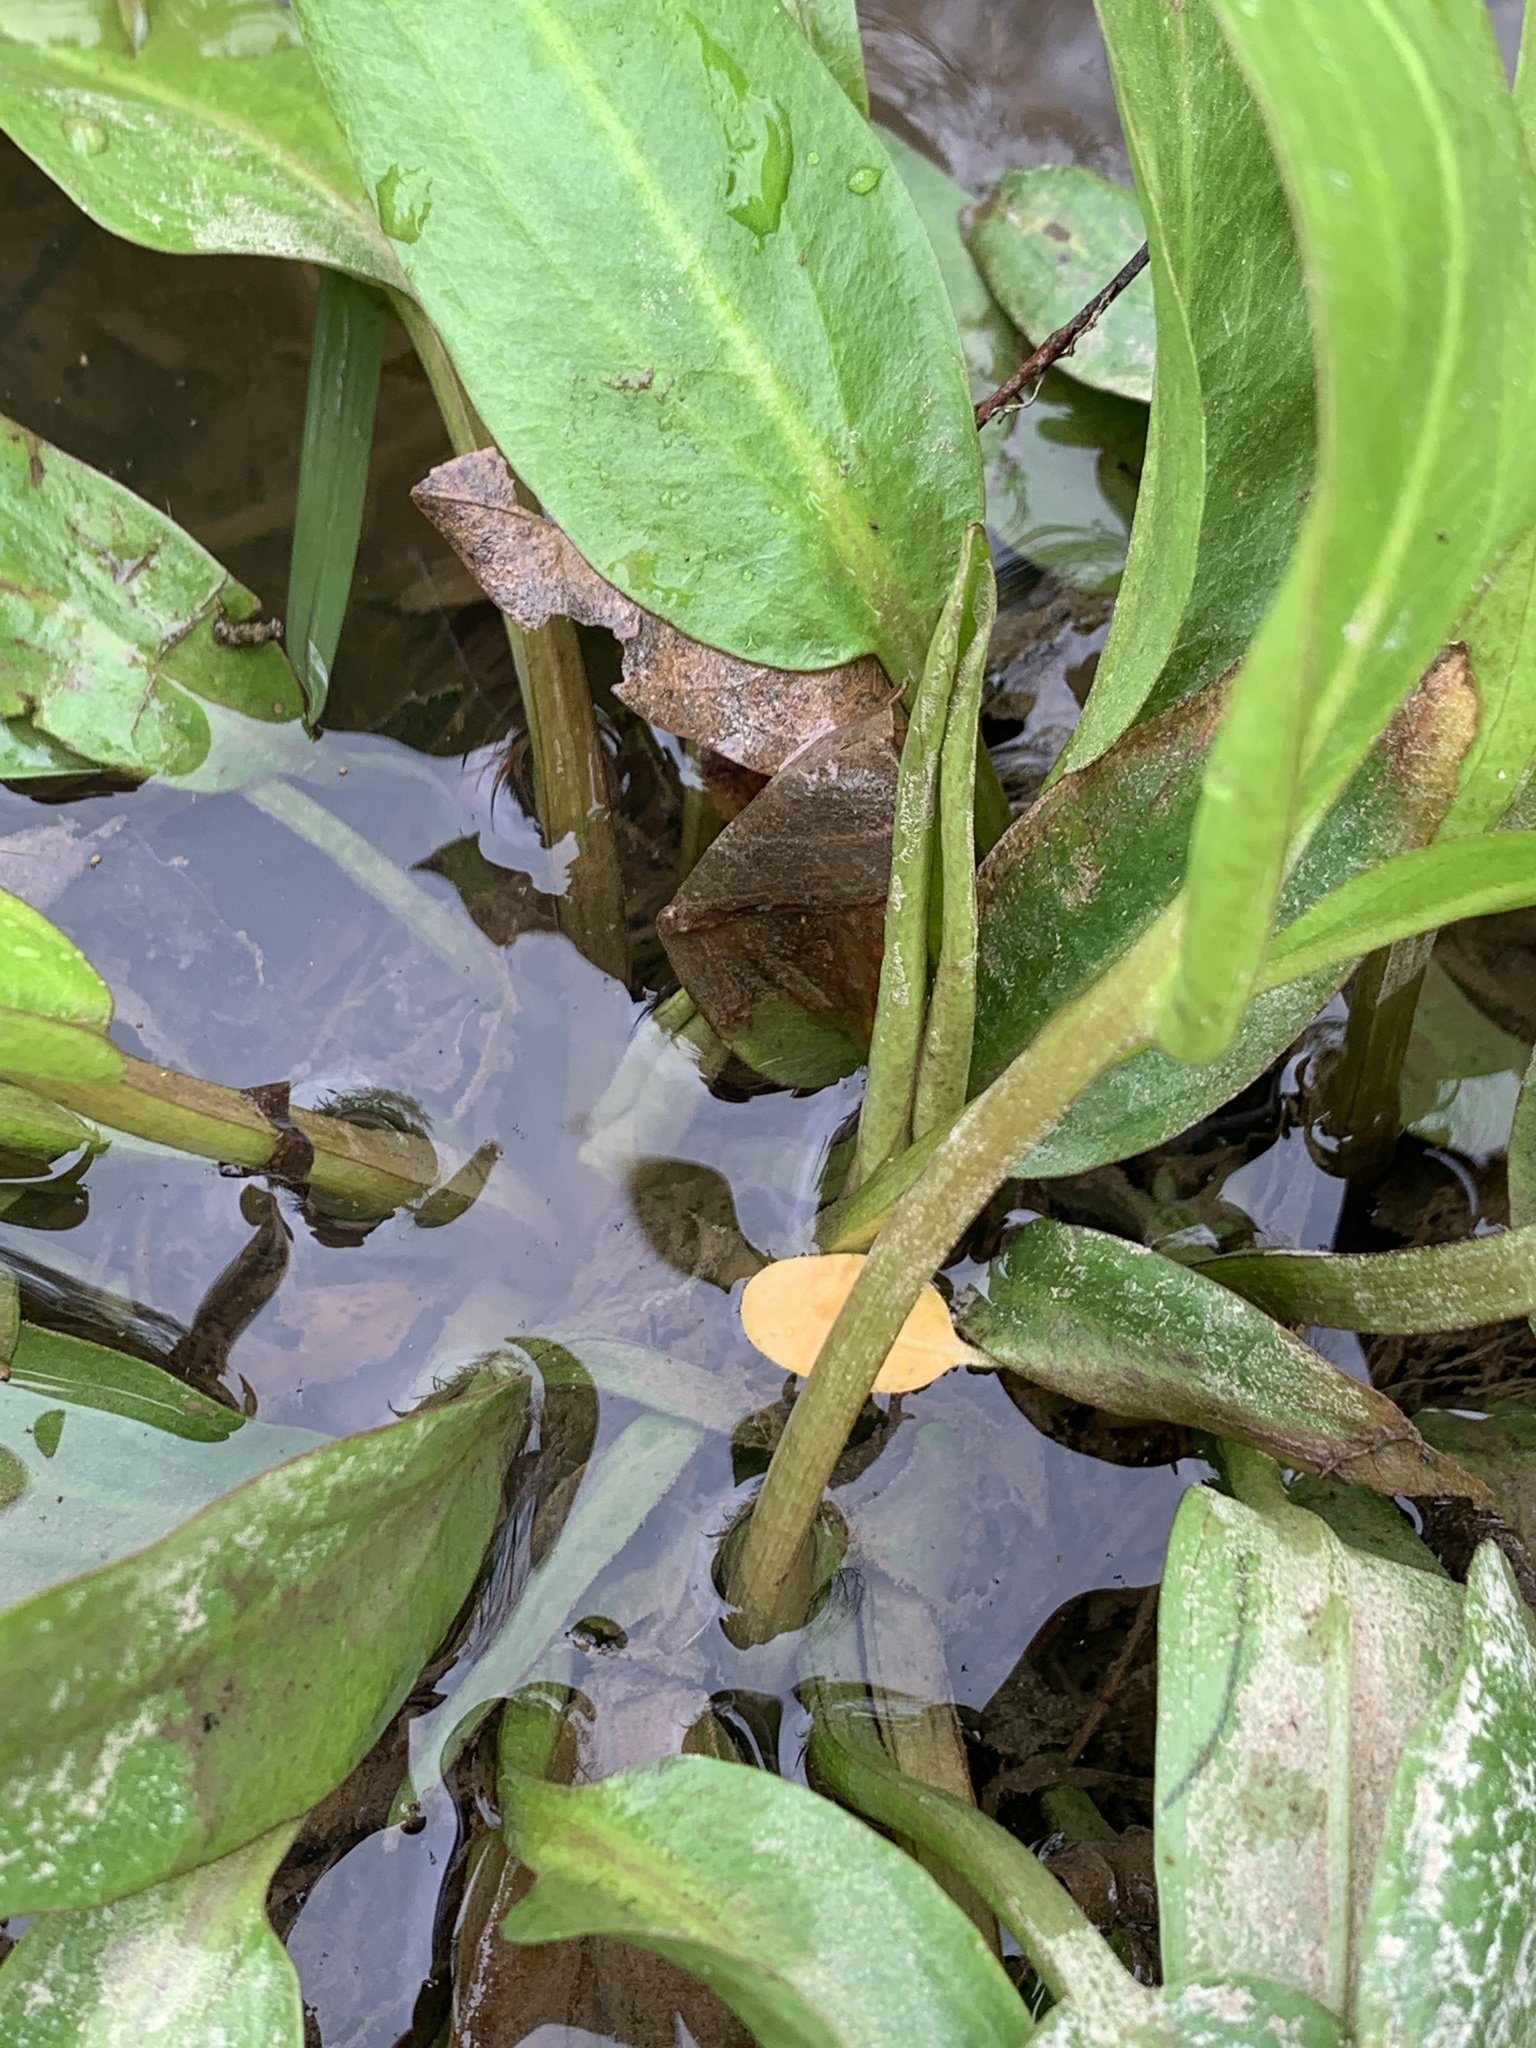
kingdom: Plantae
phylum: Tracheophyta
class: Liliopsida
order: Alismatales
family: Alismataceae
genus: Alisma
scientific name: Alisma subcordatum
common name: Southern water-plantain
